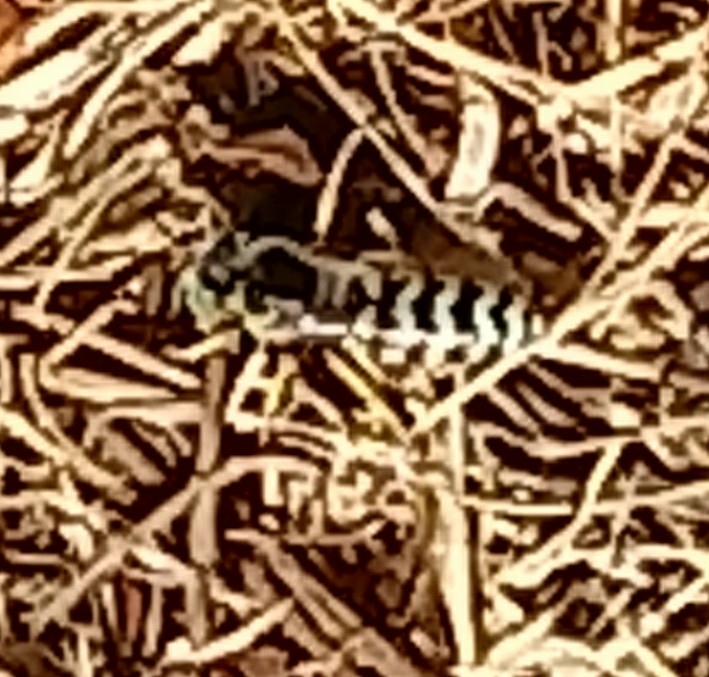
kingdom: Animalia
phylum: Arthropoda
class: Insecta
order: Hymenoptera
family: Crabronidae
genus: Bembix
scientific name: Bembix americana
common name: American sand wasp
